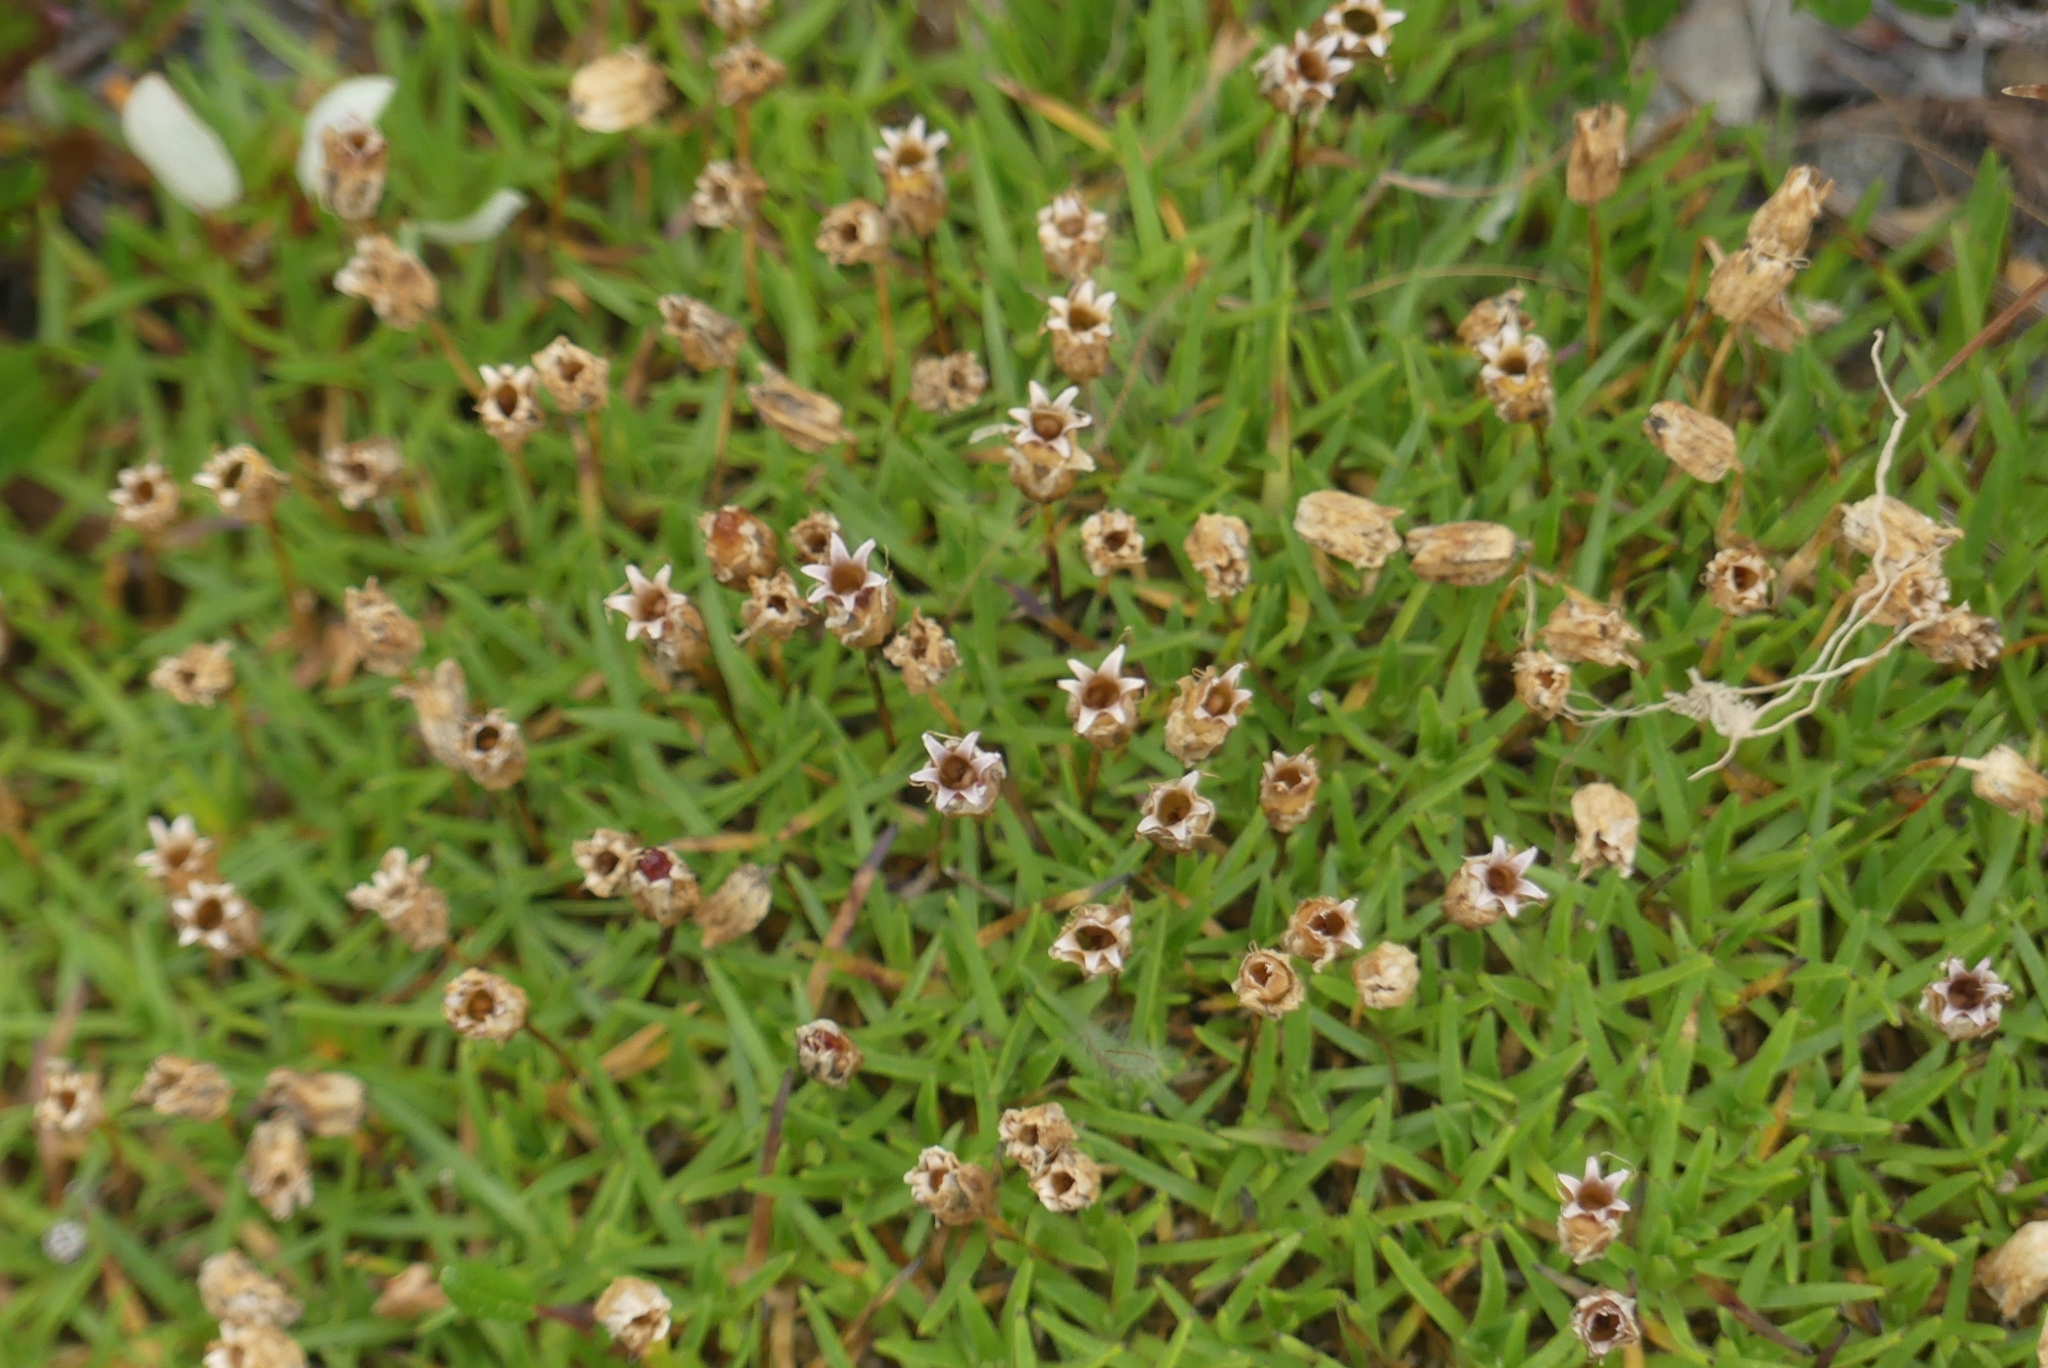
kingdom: Plantae
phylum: Tracheophyta
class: Magnoliopsida
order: Caryophyllales
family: Caryophyllaceae
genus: Silene
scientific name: Silene acaulis
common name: Moss campion
